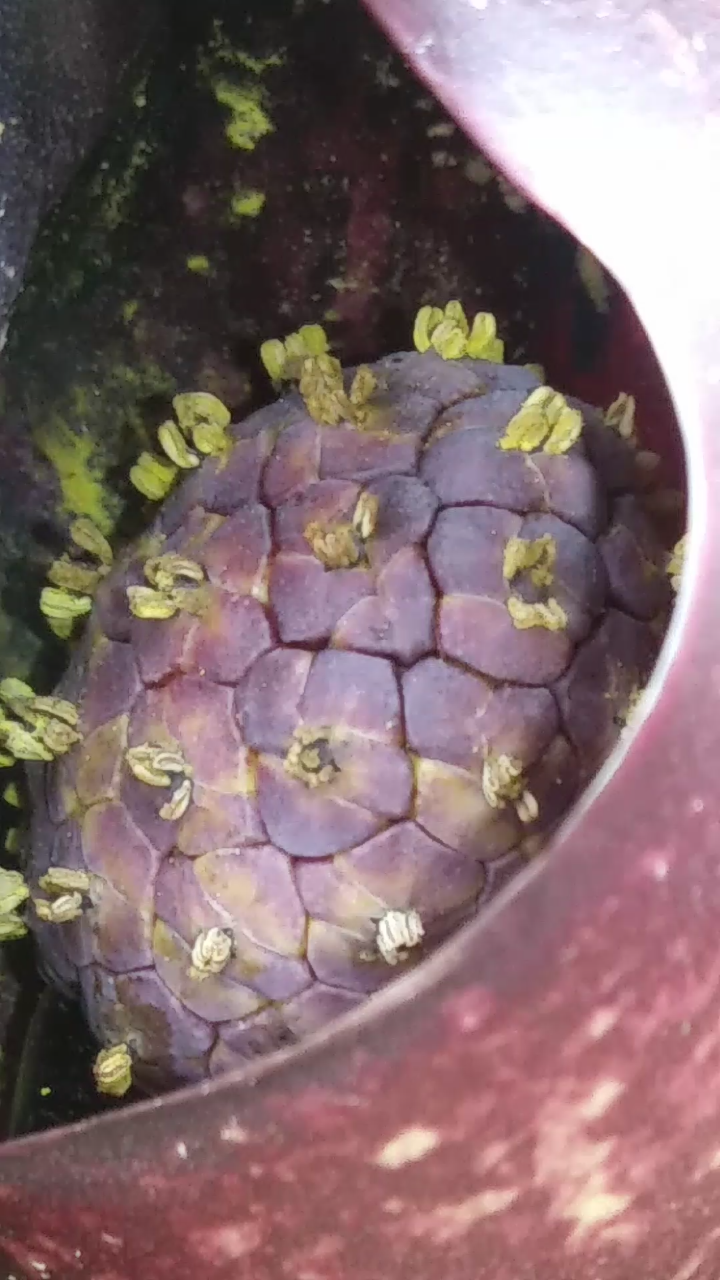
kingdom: Plantae
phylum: Tracheophyta
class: Liliopsida
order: Alismatales
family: Araceae
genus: Symplocarpus
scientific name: Symplocarpus foetidus
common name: Eastern skunk cabbage
